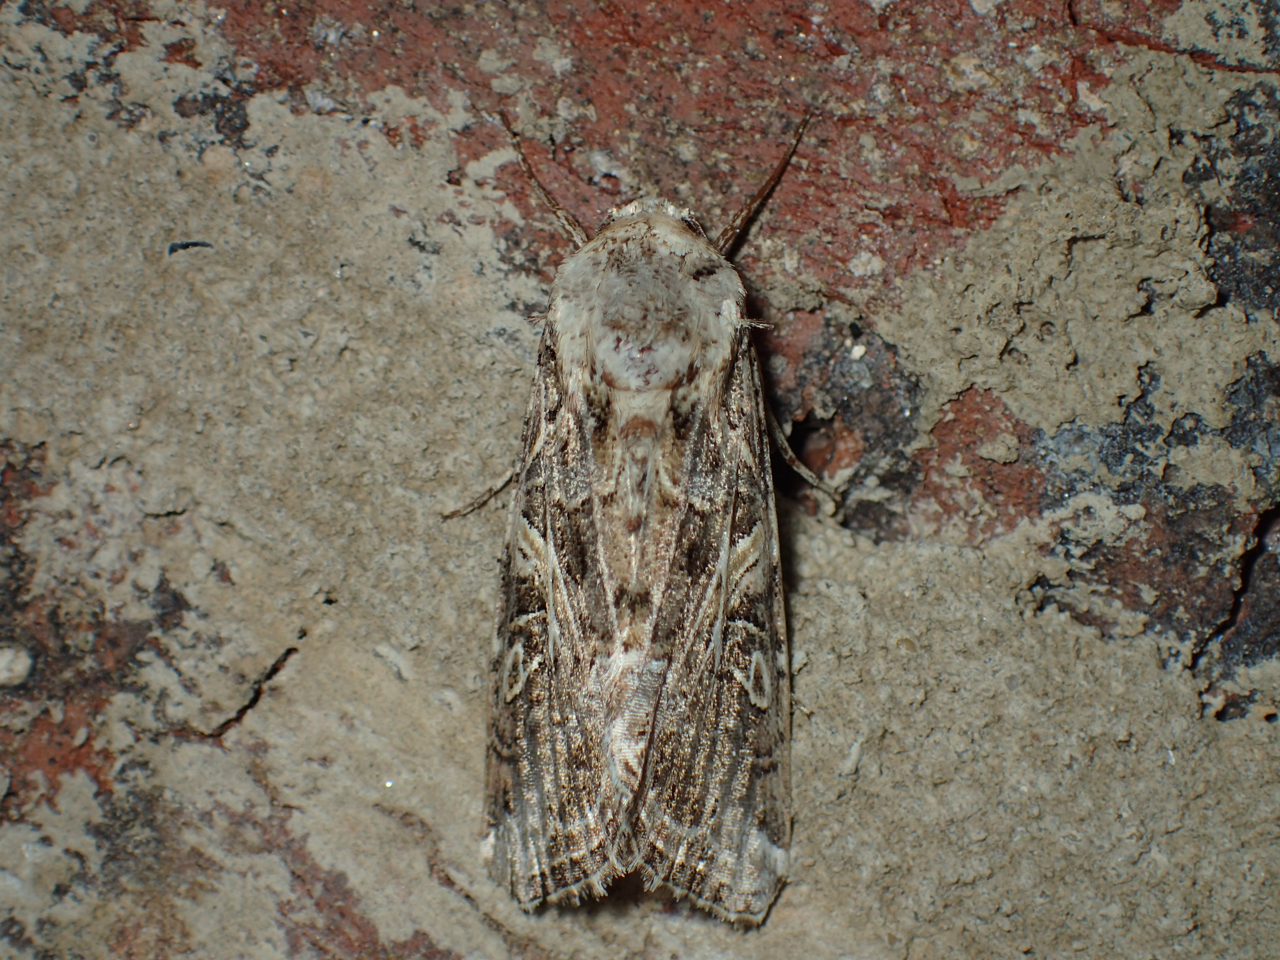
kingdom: Animalia
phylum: Arthropoda
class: Insecta
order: Lepidoptera
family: Noctuidae
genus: Spodoptera
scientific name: Spodoptera ornithogalli
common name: Yellow-striped armyworm
